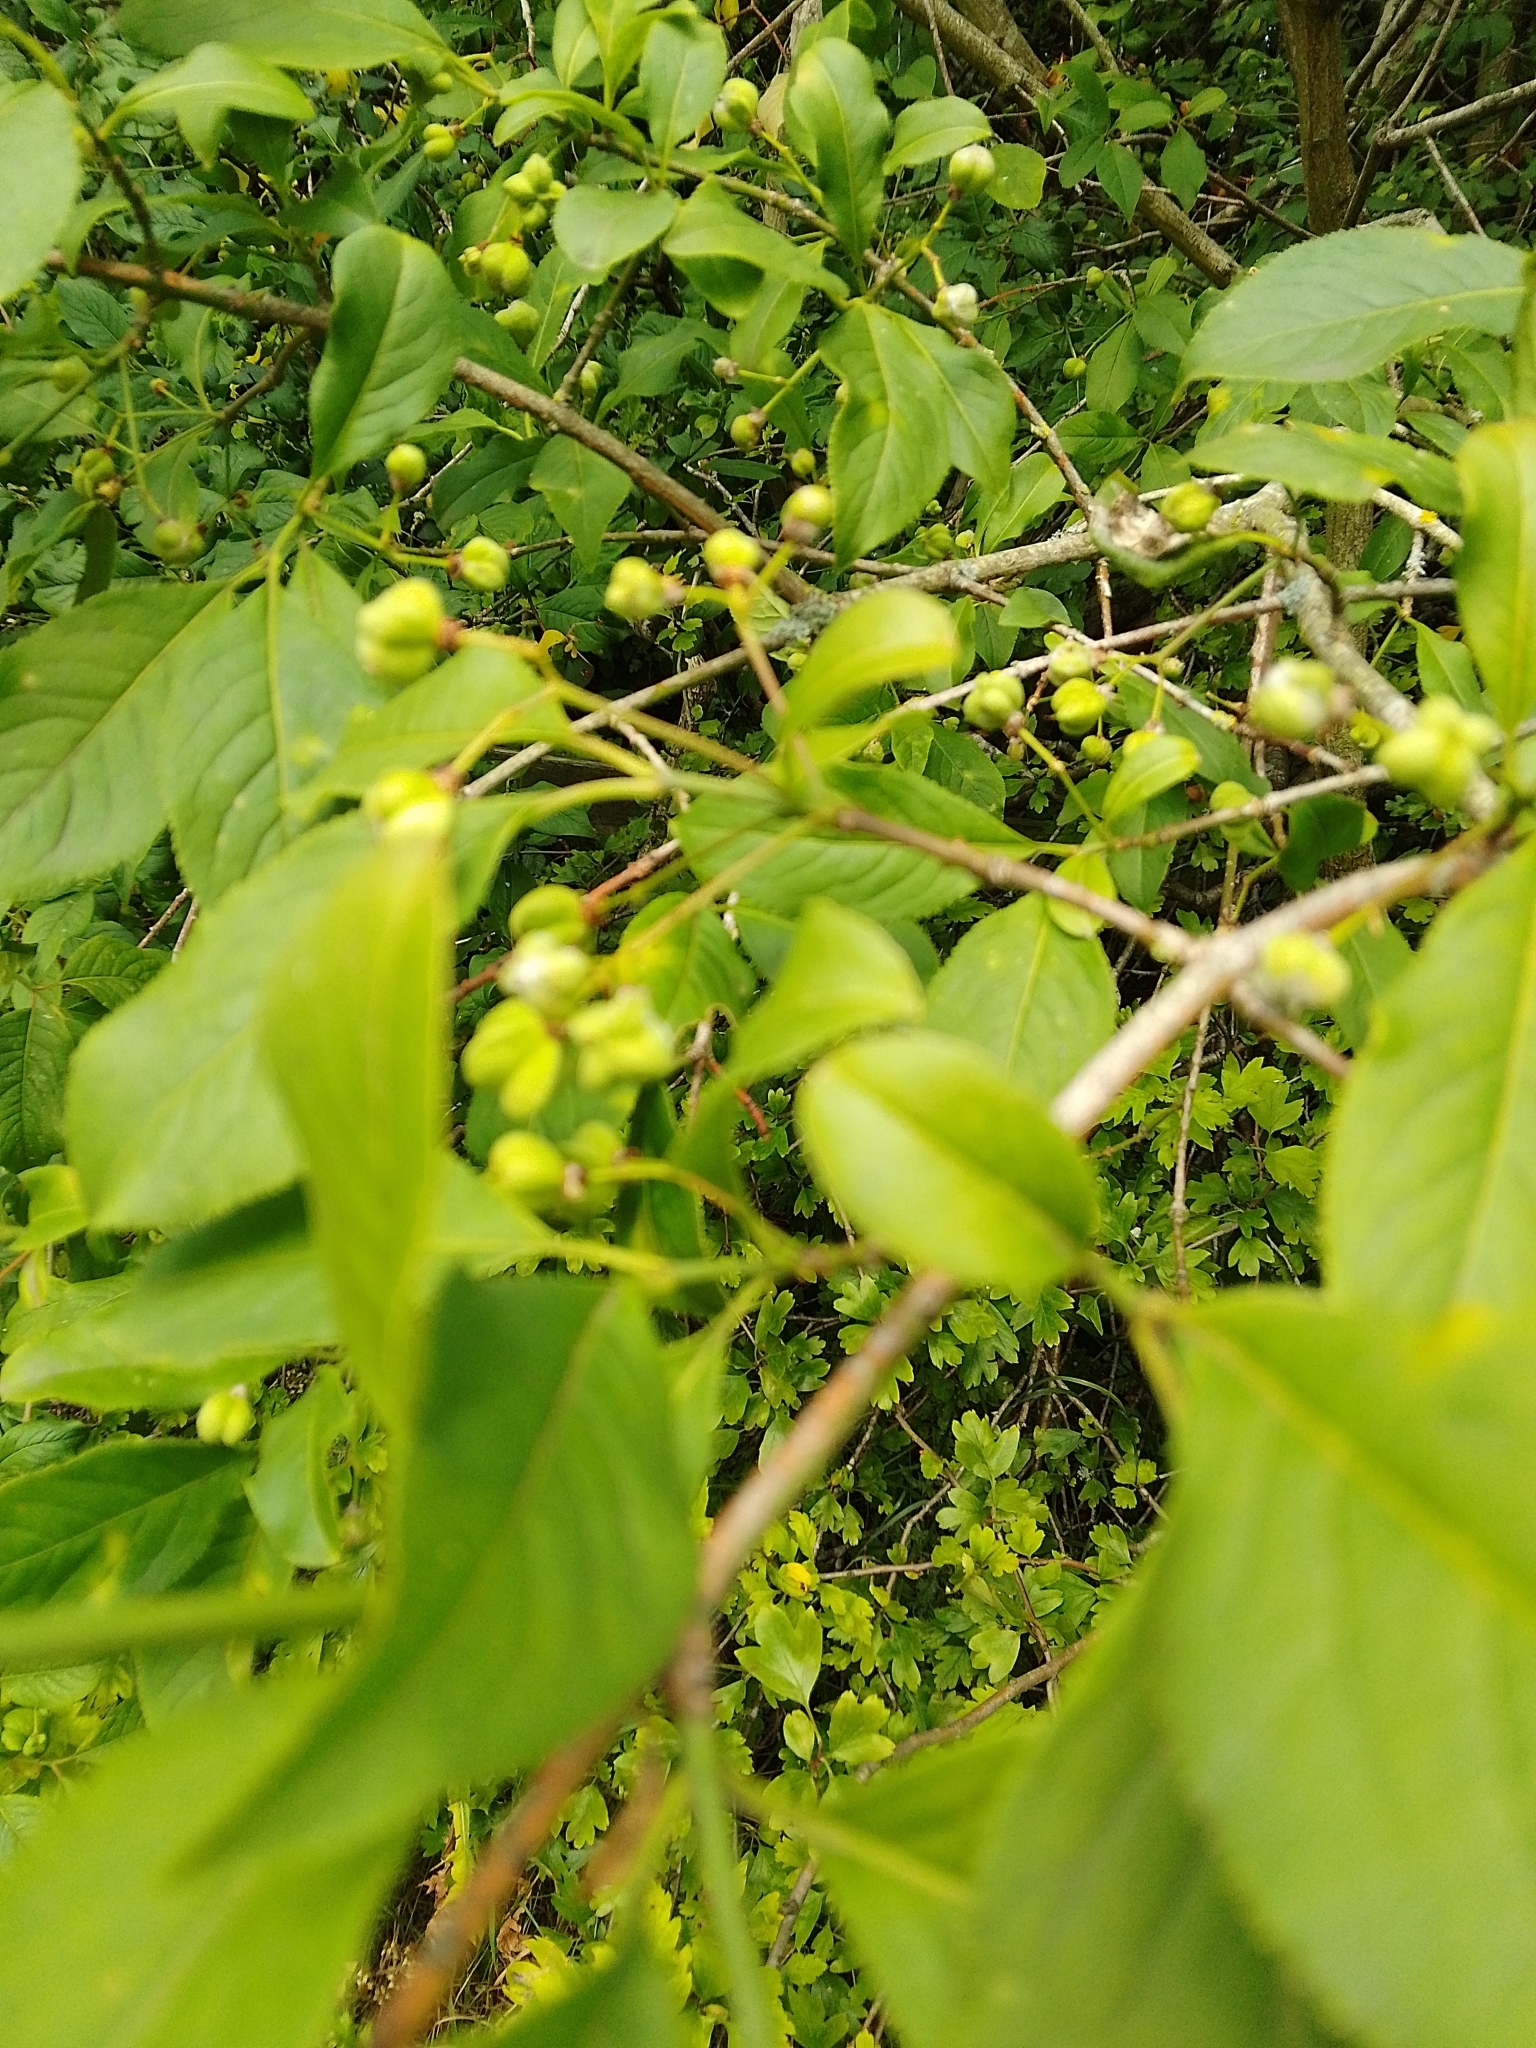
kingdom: Plantae
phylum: Tracheophyta
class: Magnoliopsida
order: Celastrales
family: Celastraceae
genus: Euonymus
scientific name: Euonymus europaeus
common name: Spindle
